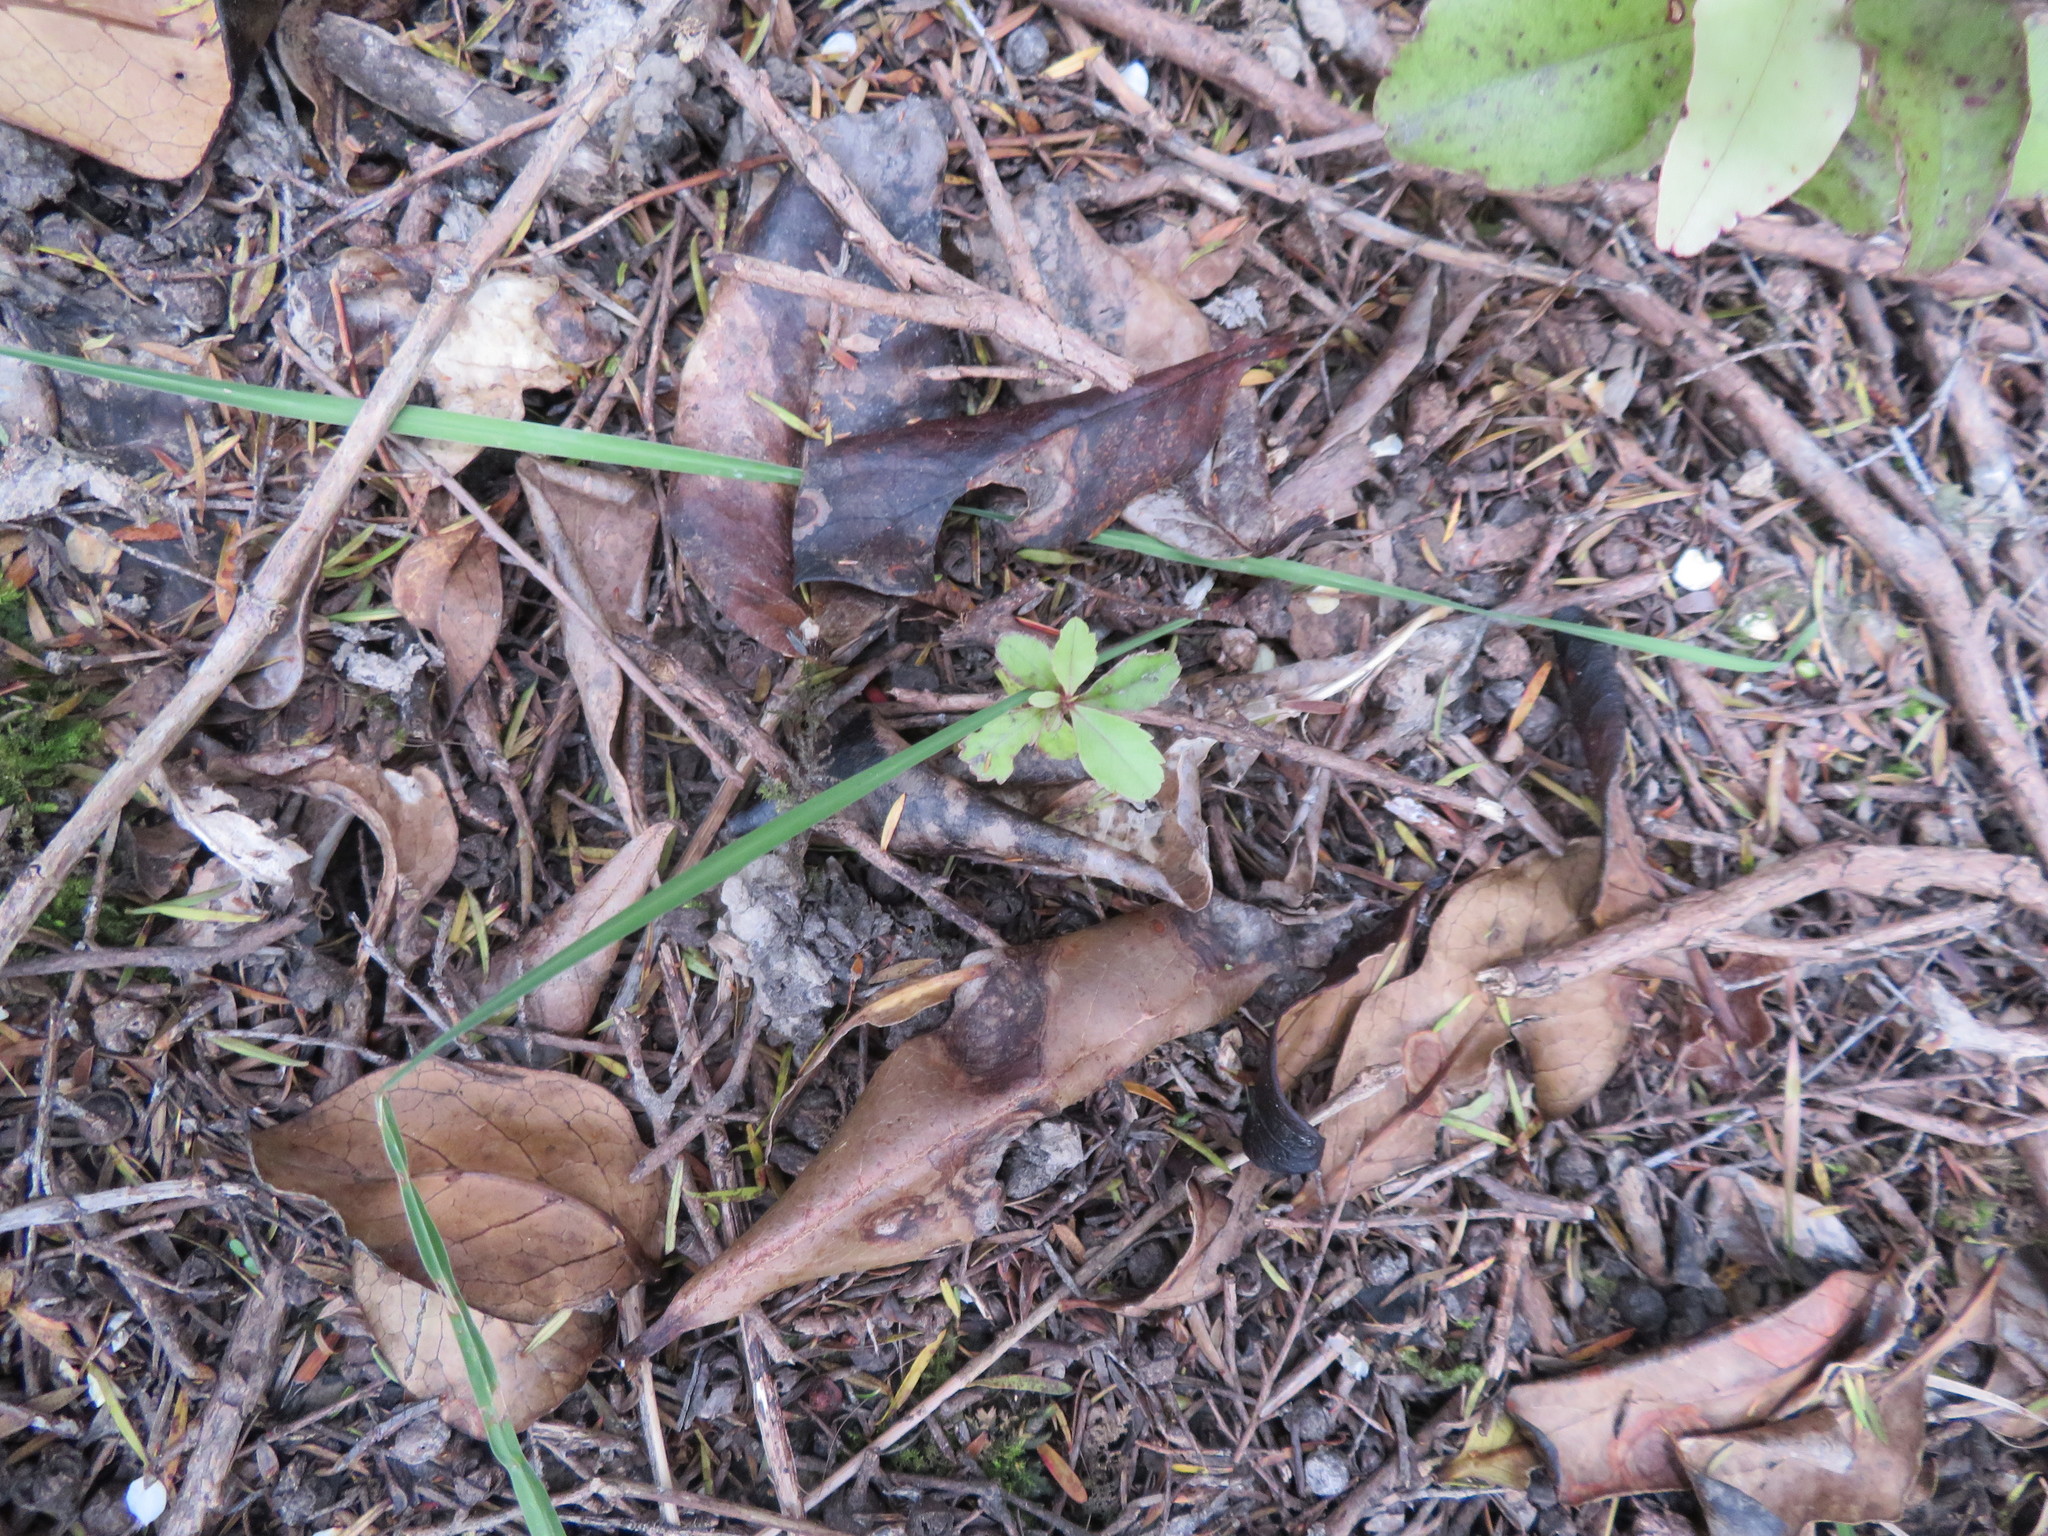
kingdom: Plantae
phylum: Tracheophyta
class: Magnoliopsida
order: Ericales
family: Primulaceae
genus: Myrsine
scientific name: Myrsine australis
